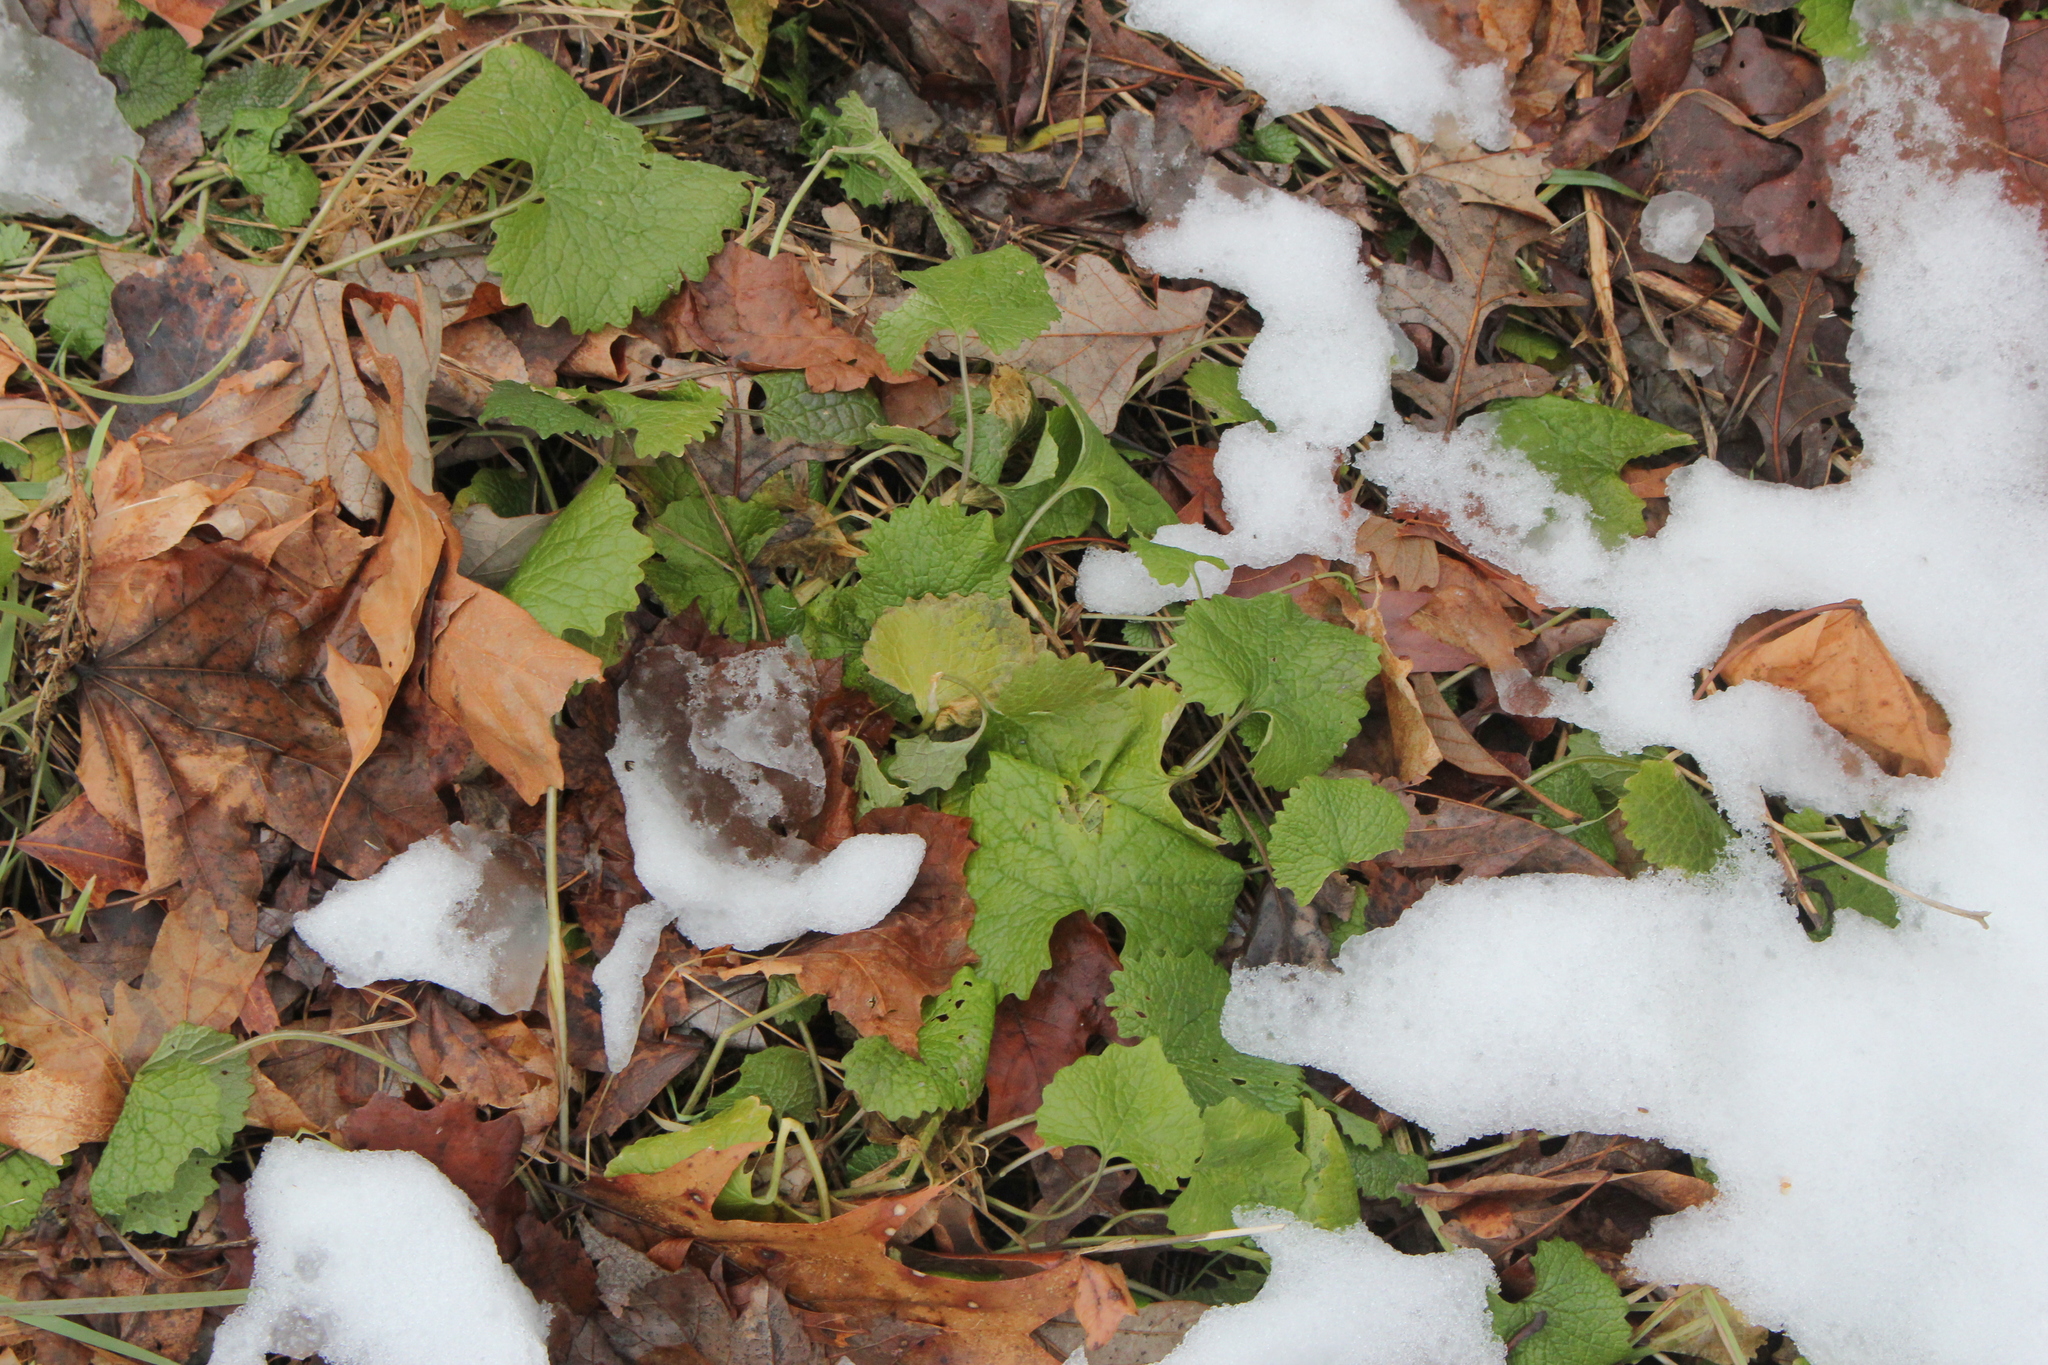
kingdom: Plantae
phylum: Tracheophyta
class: Magnoliopsida
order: Brassicales
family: Brassicaceae
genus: Alliaria
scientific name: Alliaria petiolata
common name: Garlic mustard
